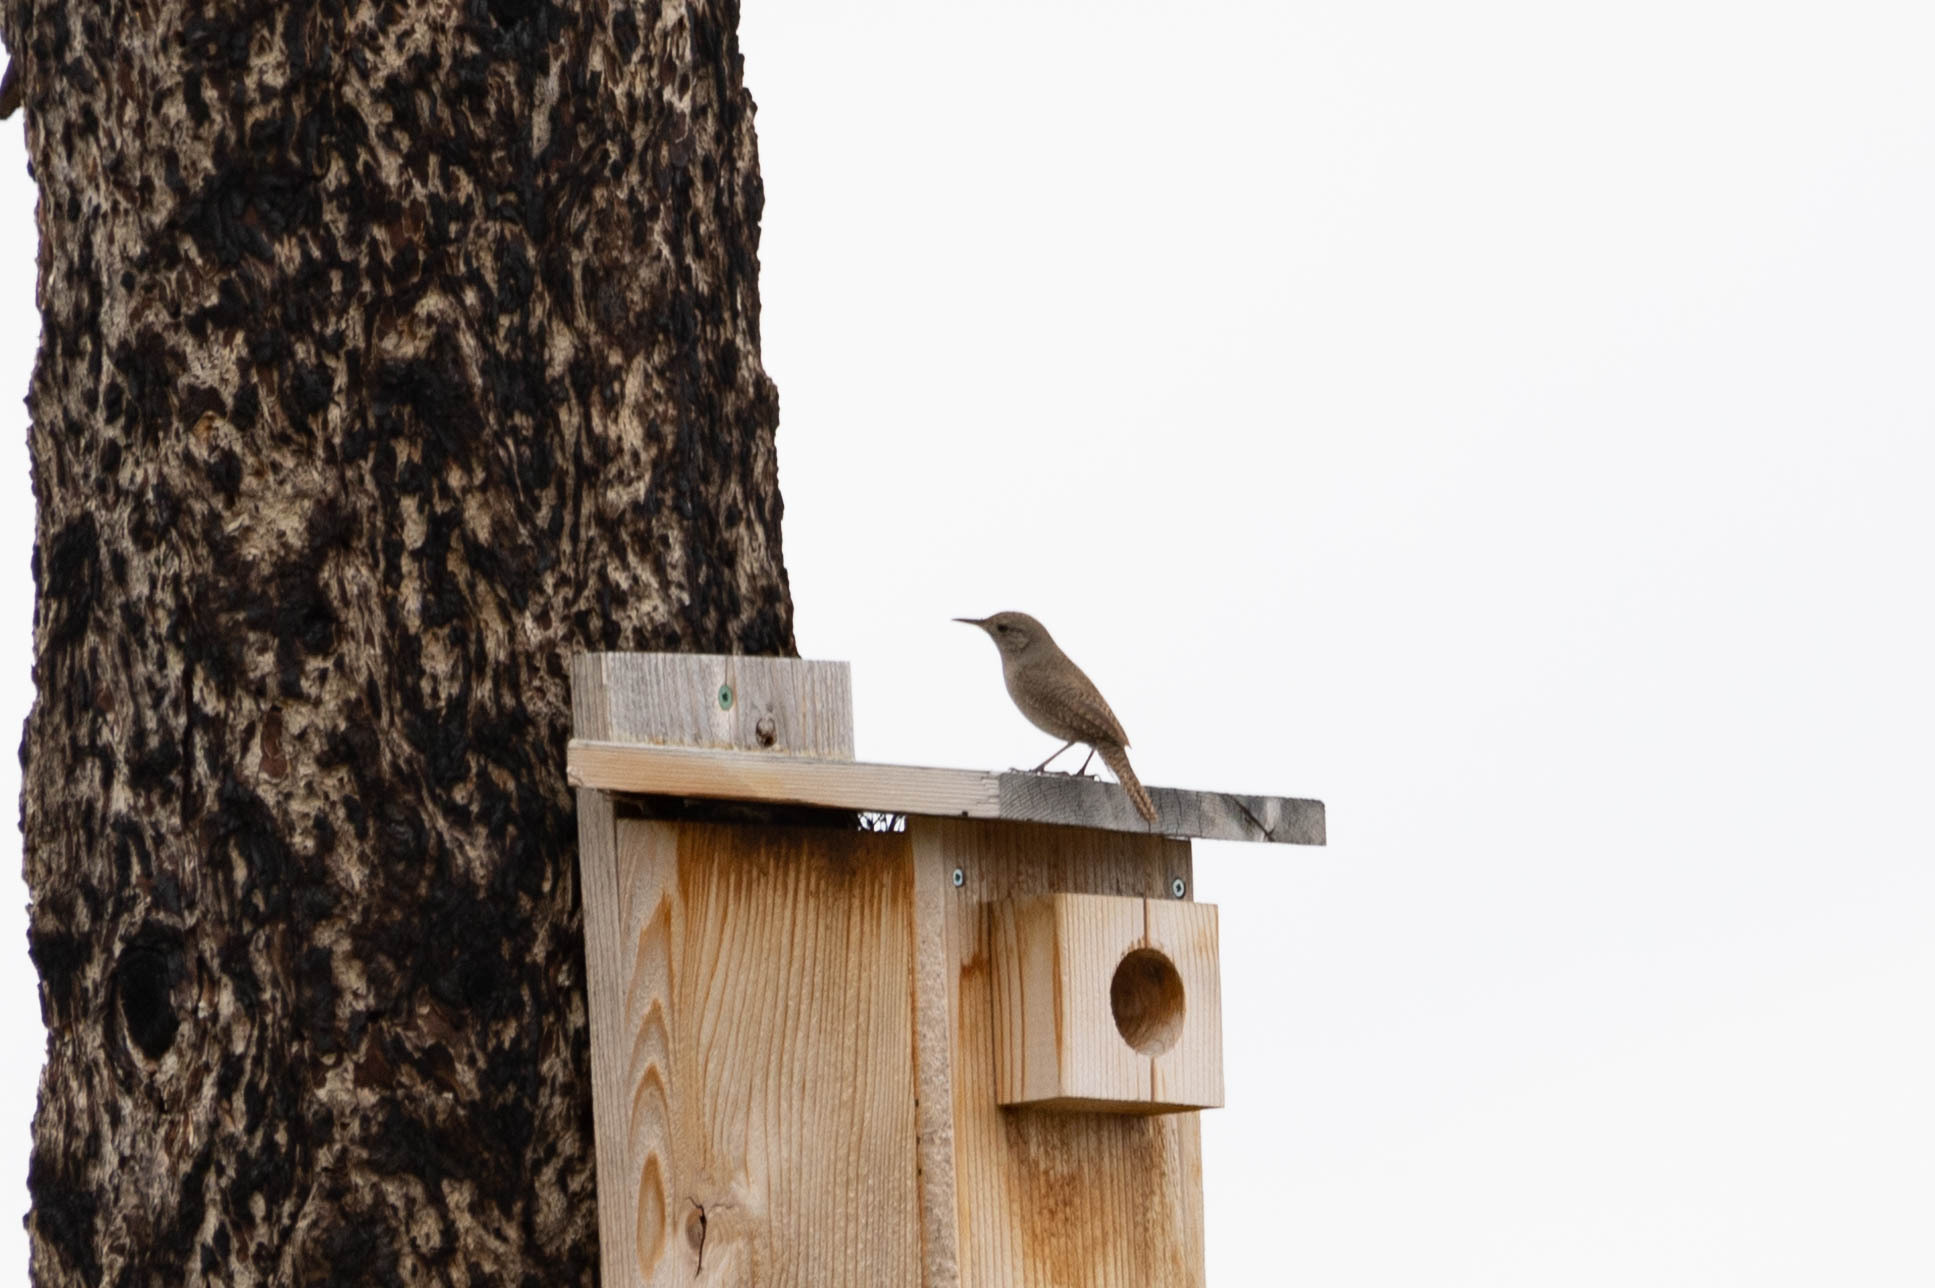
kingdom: Animalia
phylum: Chordata
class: Aves
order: Passeriformes
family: Troglodytidae
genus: Troglodytes
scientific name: Troglodytes aedon
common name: House wren
